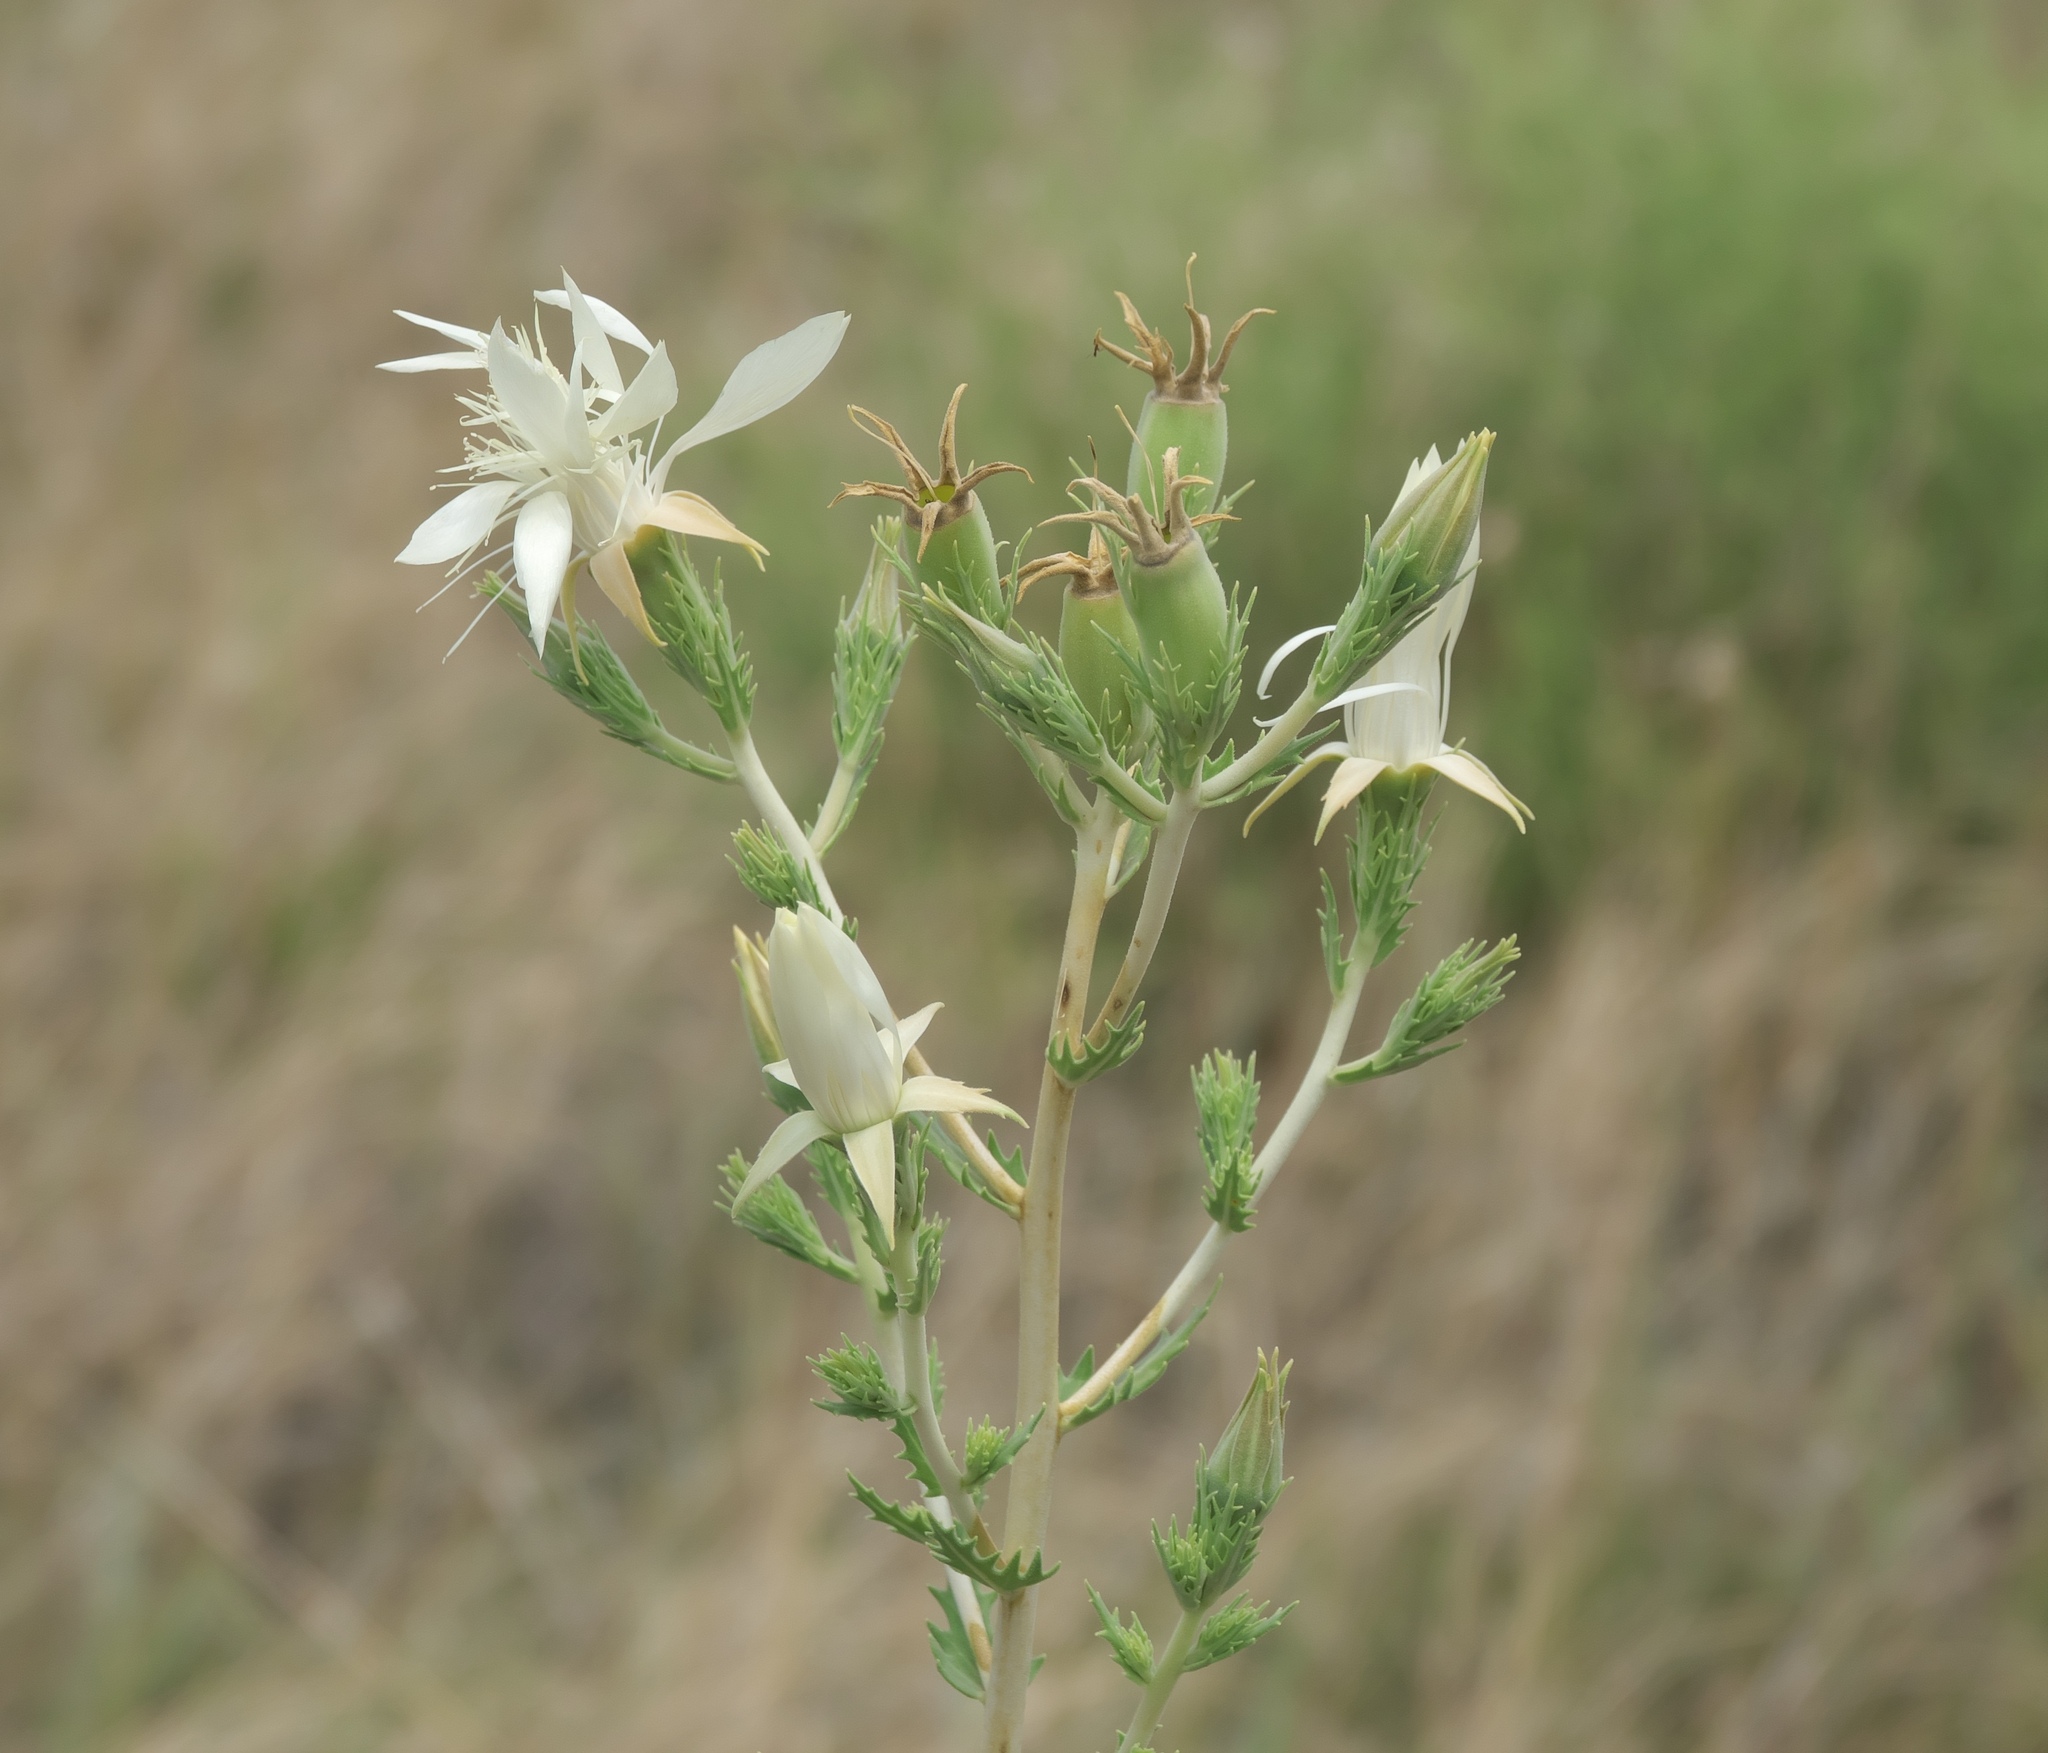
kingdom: Plantae
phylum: Tracheophyta
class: Magnoliopsida
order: Cornales
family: Loasaceae
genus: Mentzelia
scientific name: Mentzelia nuda
